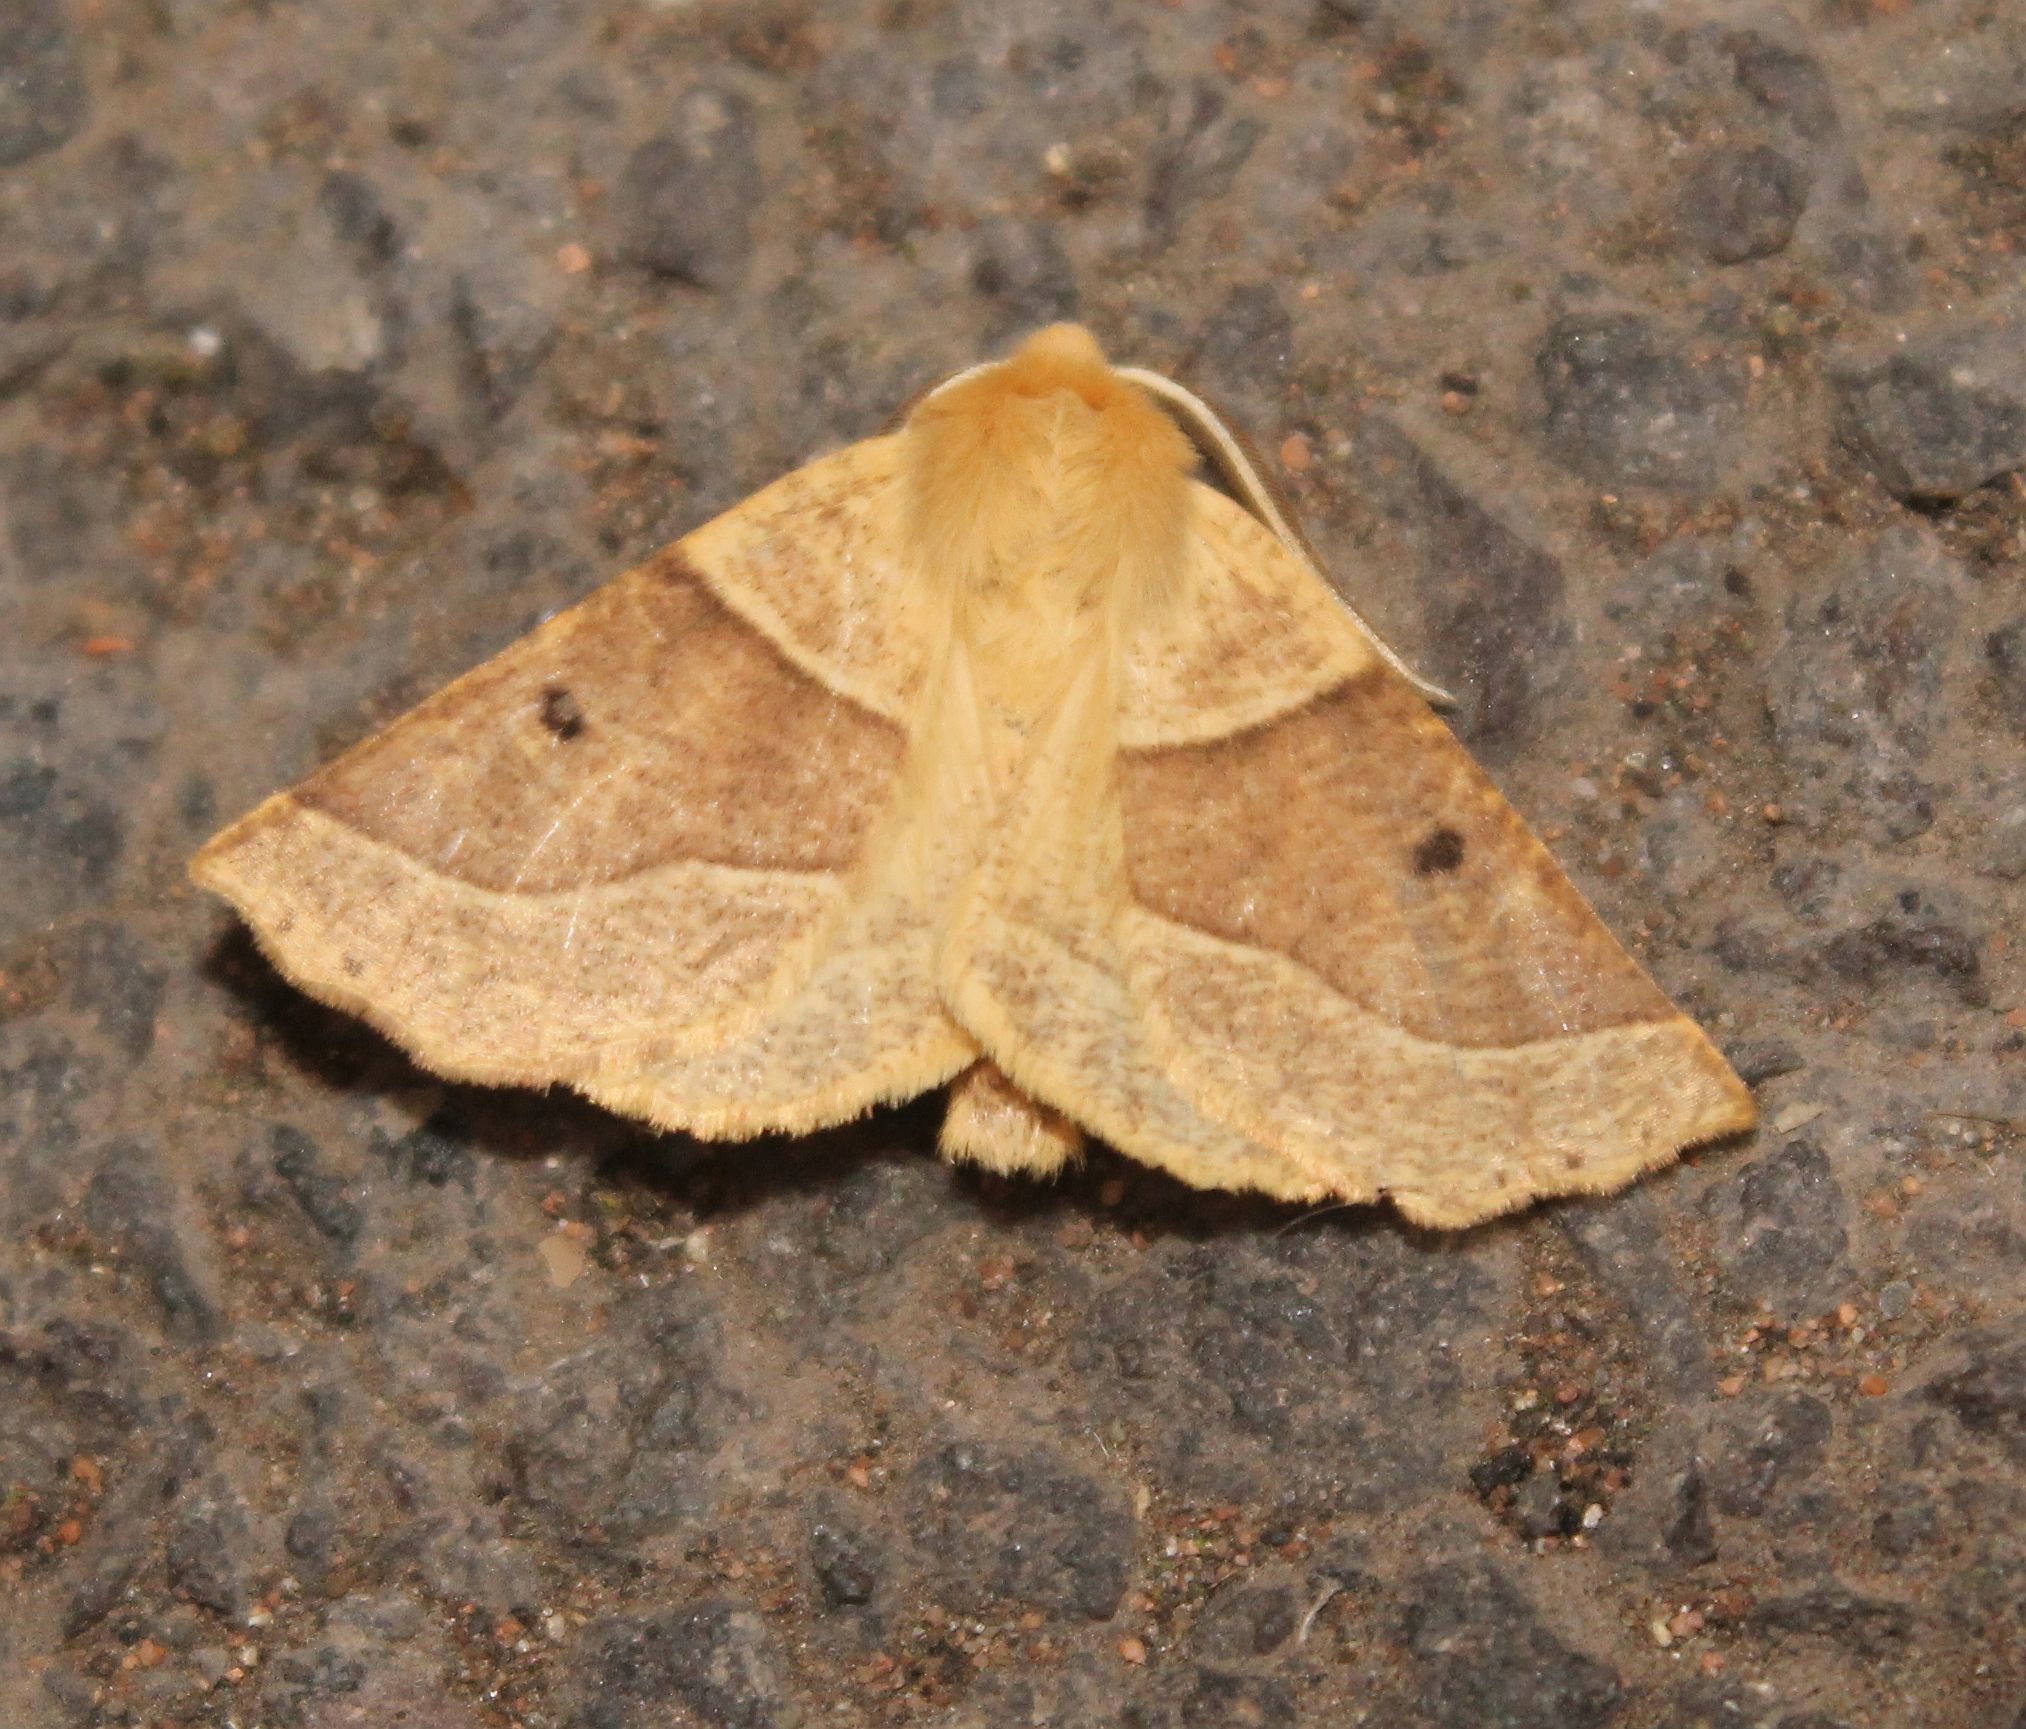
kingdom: Animalia
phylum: Arthropoda
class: Insecta
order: Lepidoptera
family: Geometridae
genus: Crocallis
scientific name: Crocallis elinguaria
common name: Scalloped oak
